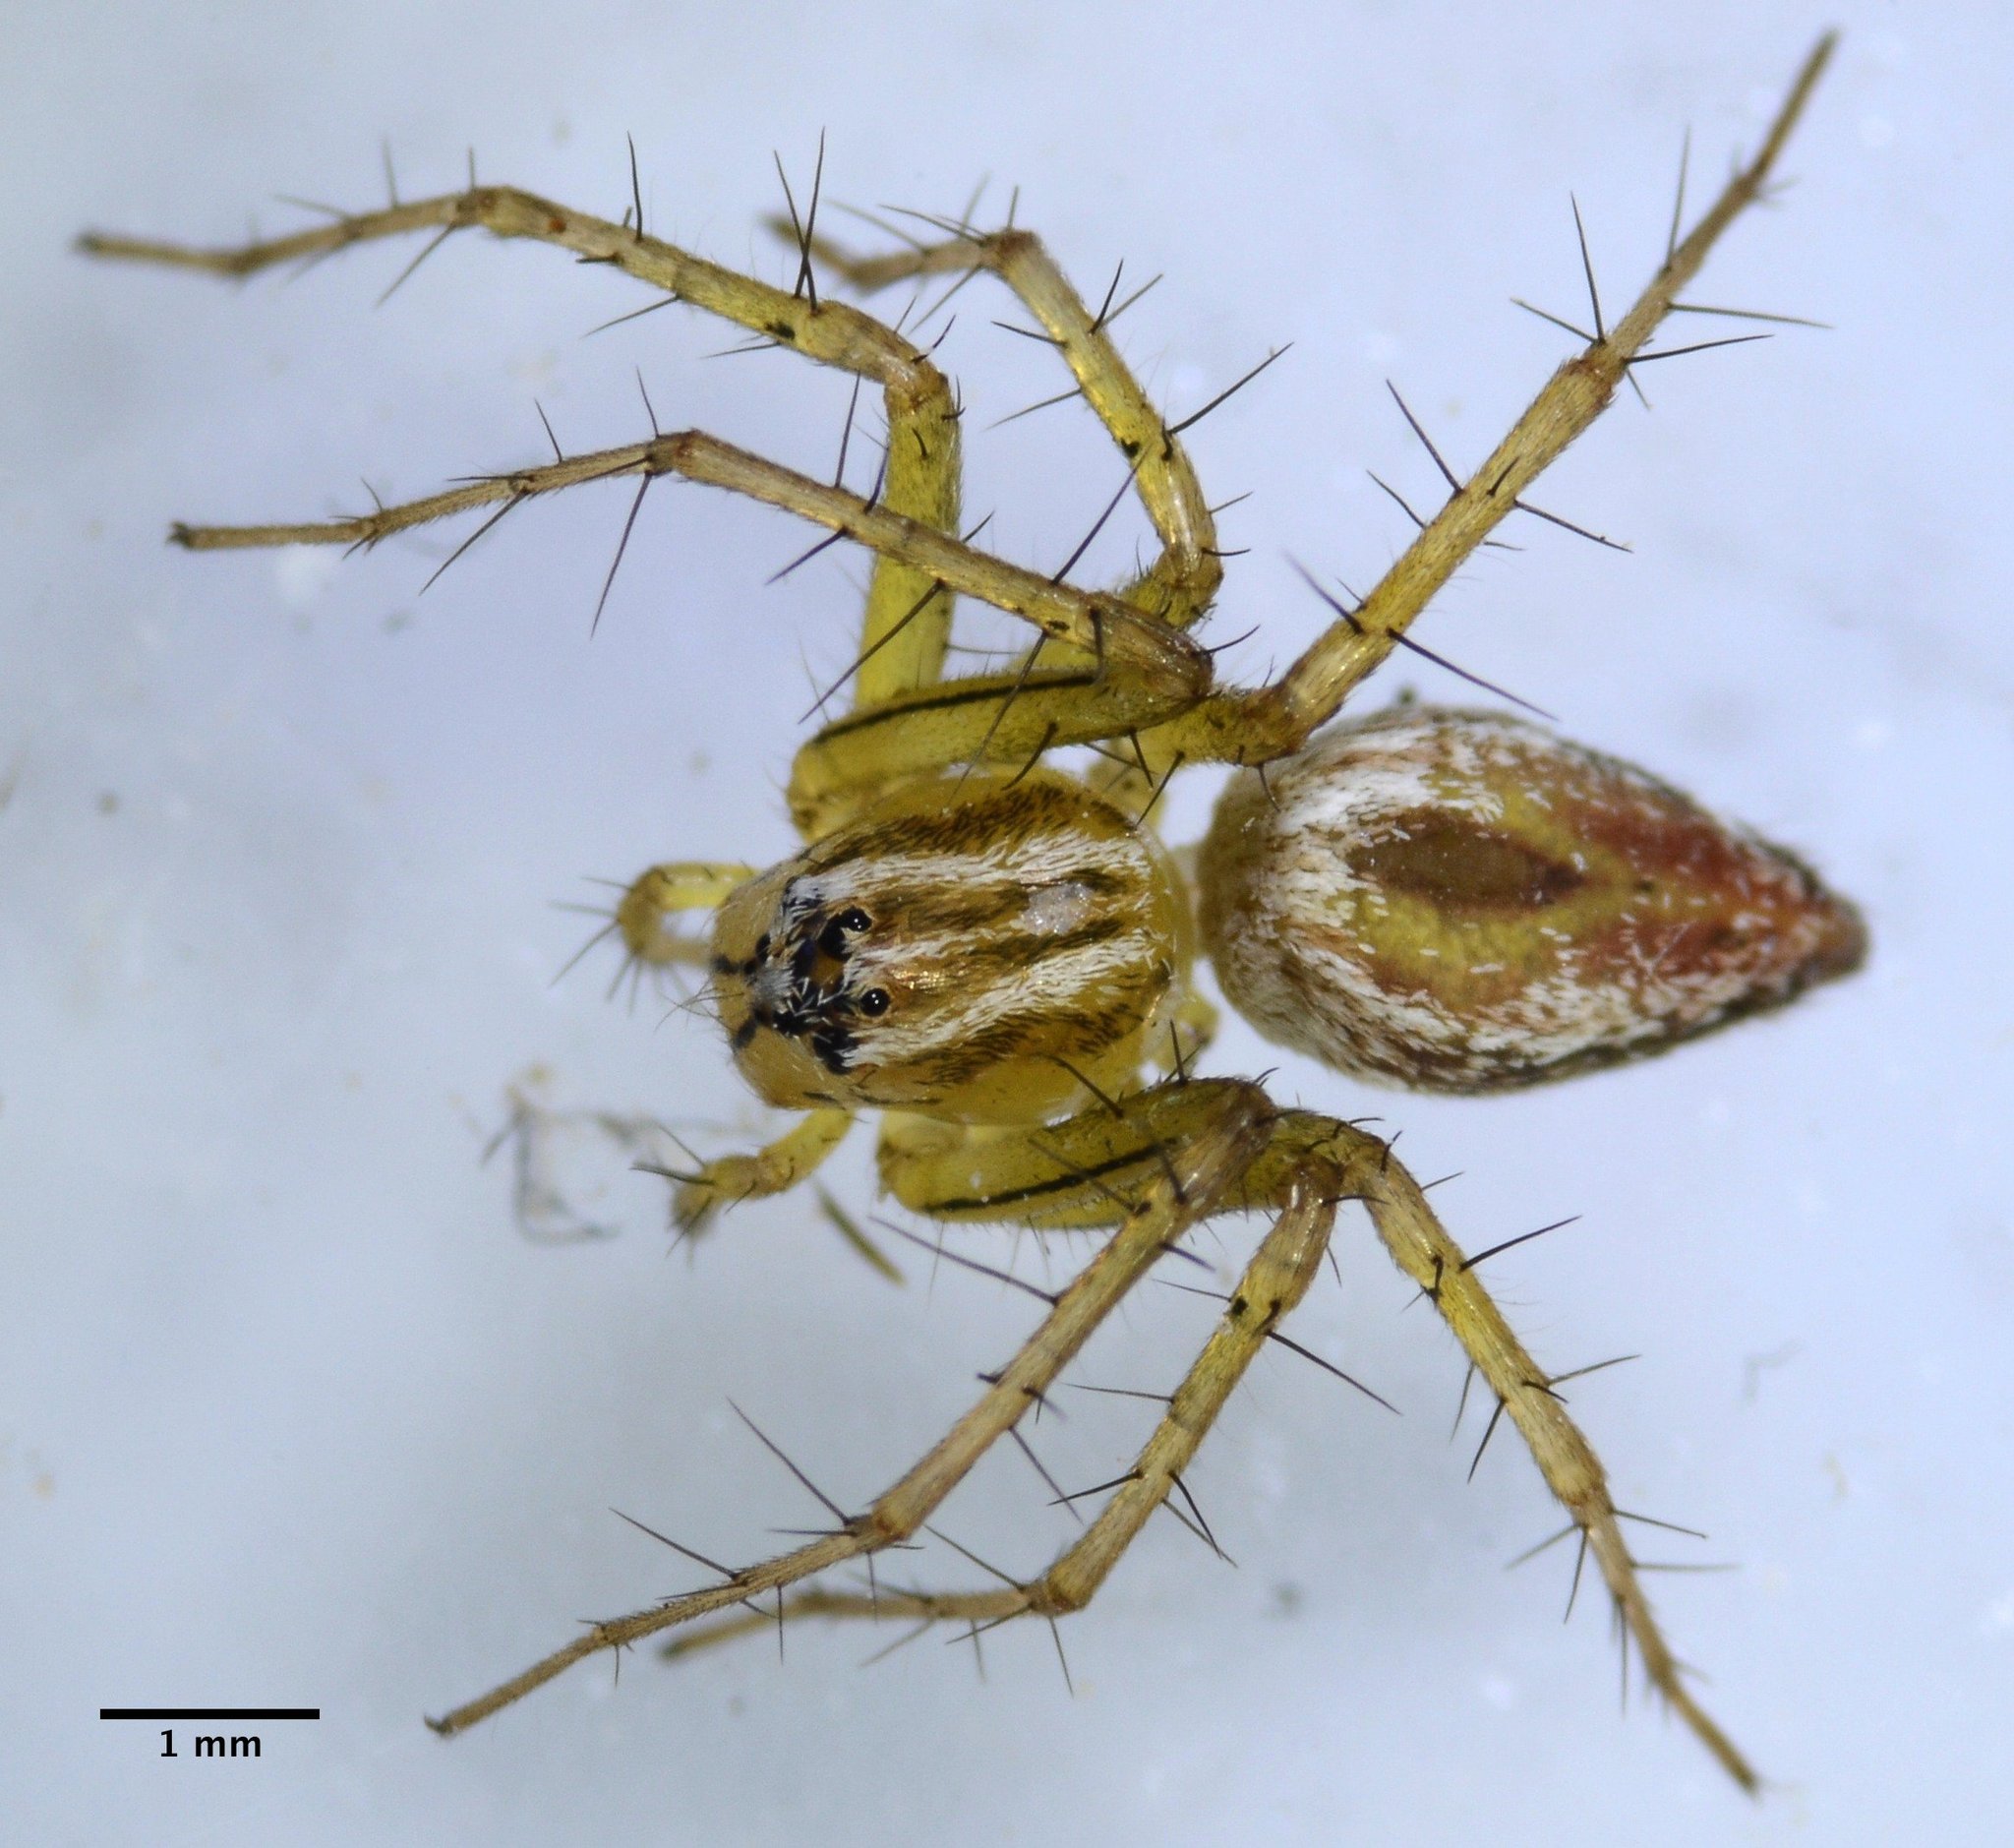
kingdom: Animalia
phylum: Arthropoda
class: Arachnida
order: Araneae
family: Oxyopidae
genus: Oxyopes
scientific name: Oxyopes salticus
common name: Lynx spiders
